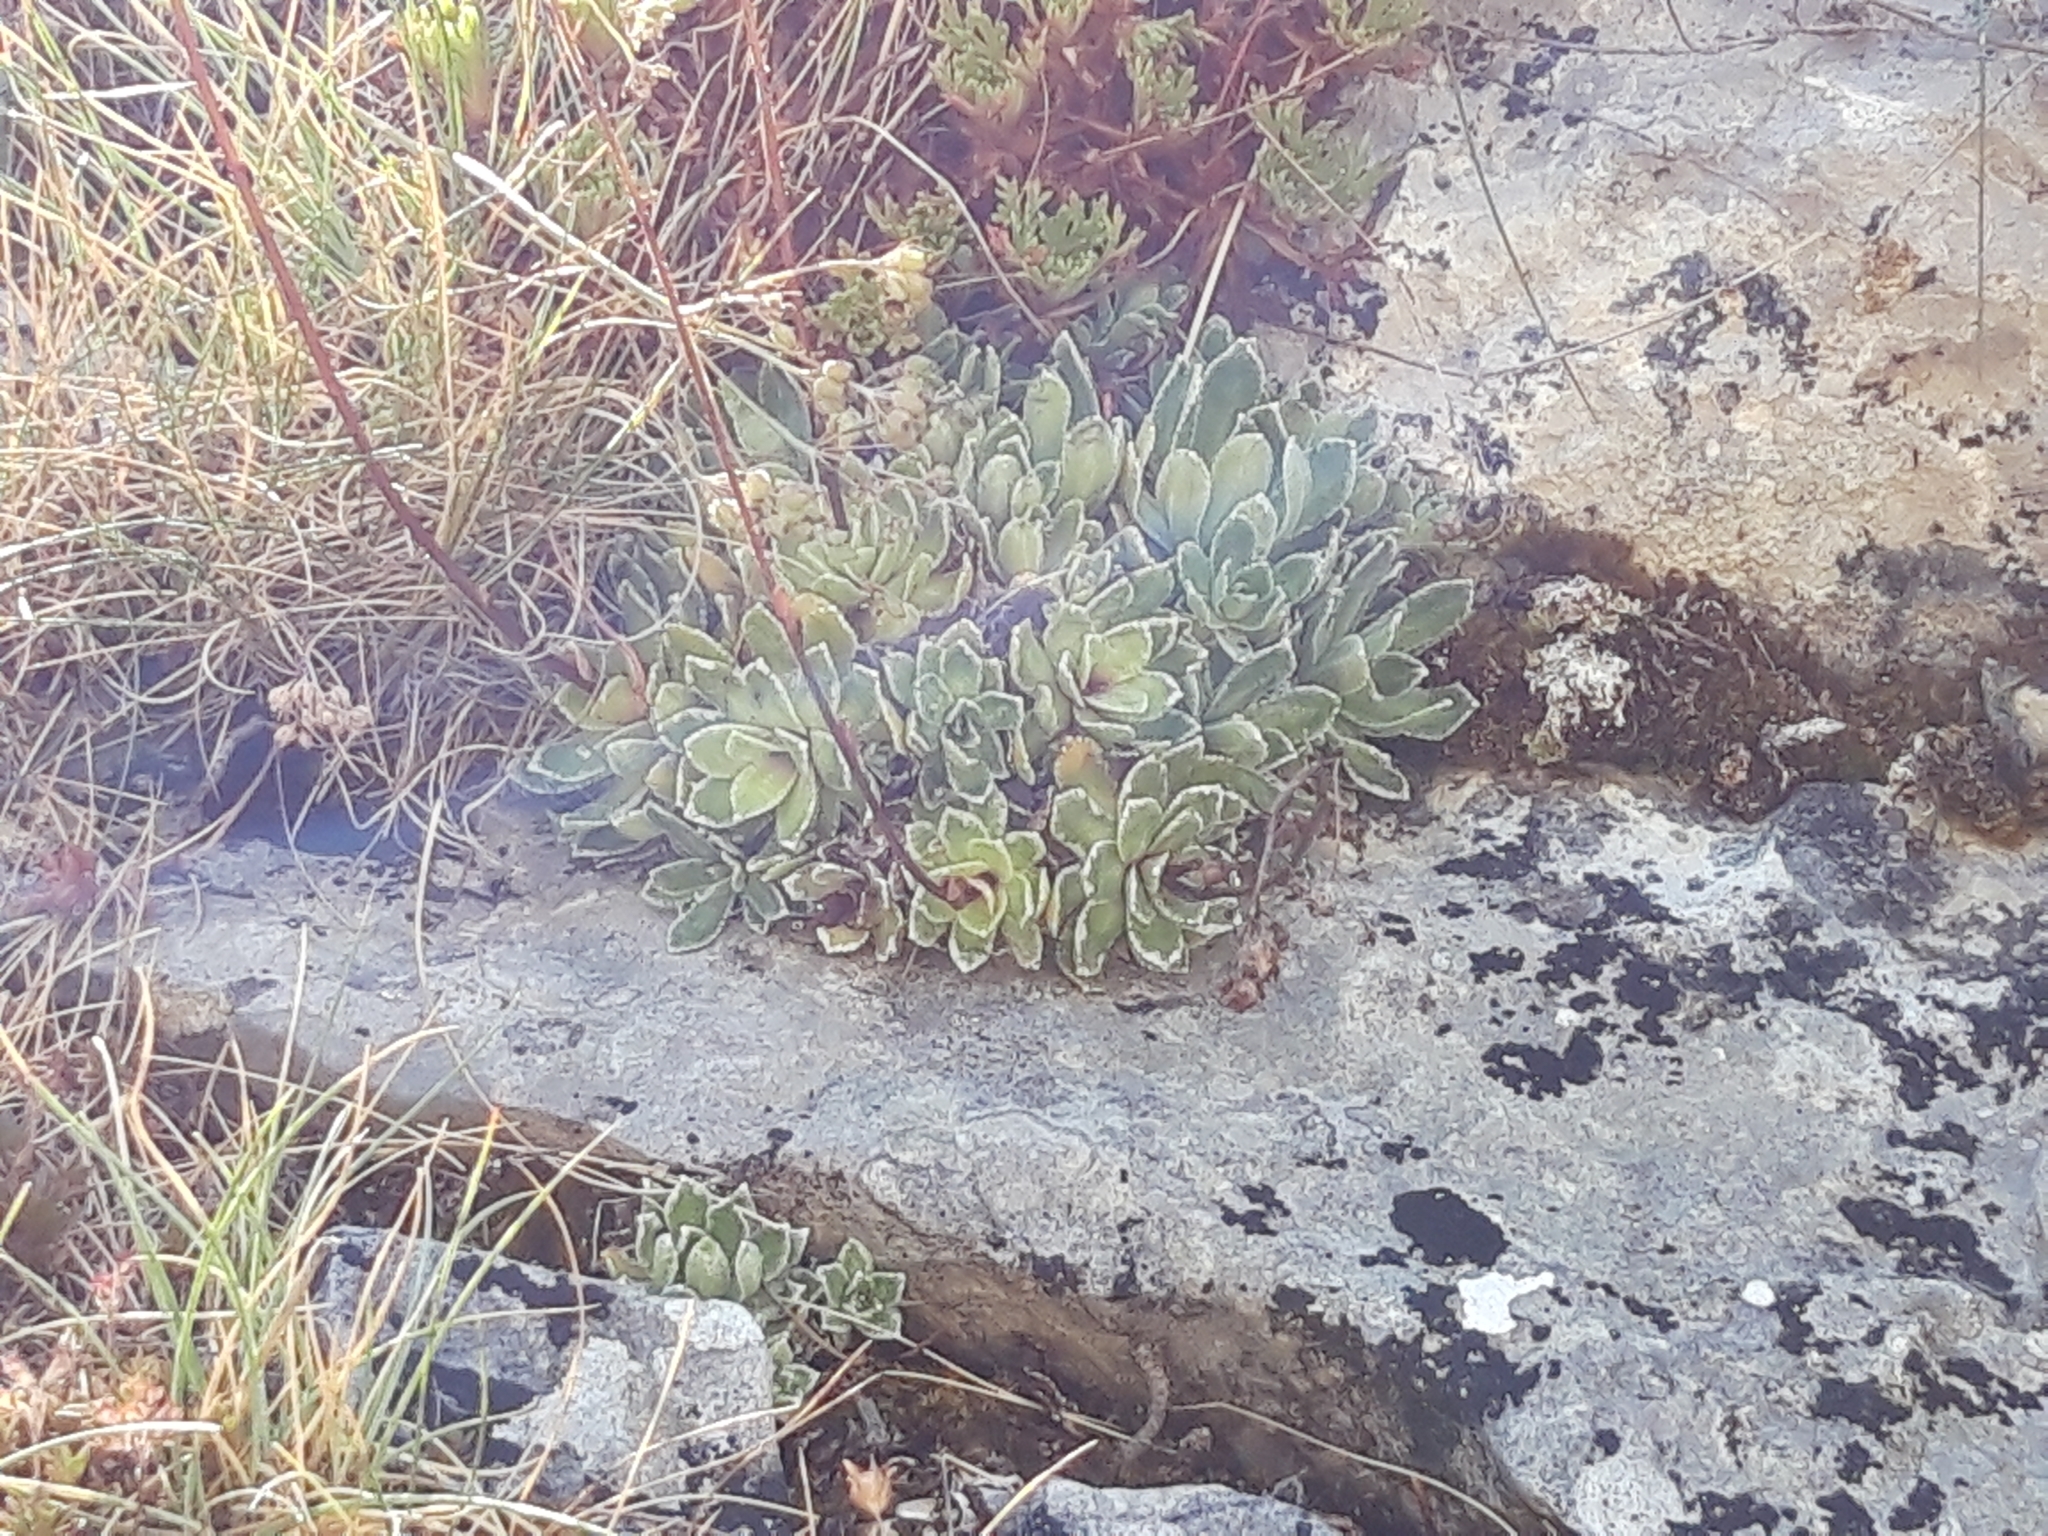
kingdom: Plantae
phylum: Tracheophyta
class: Magnoliopsida
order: Saxifragales
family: Saxifragaceae
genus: Saxifraga
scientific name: Saxifraga paniculata
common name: Livelong saxifrage
